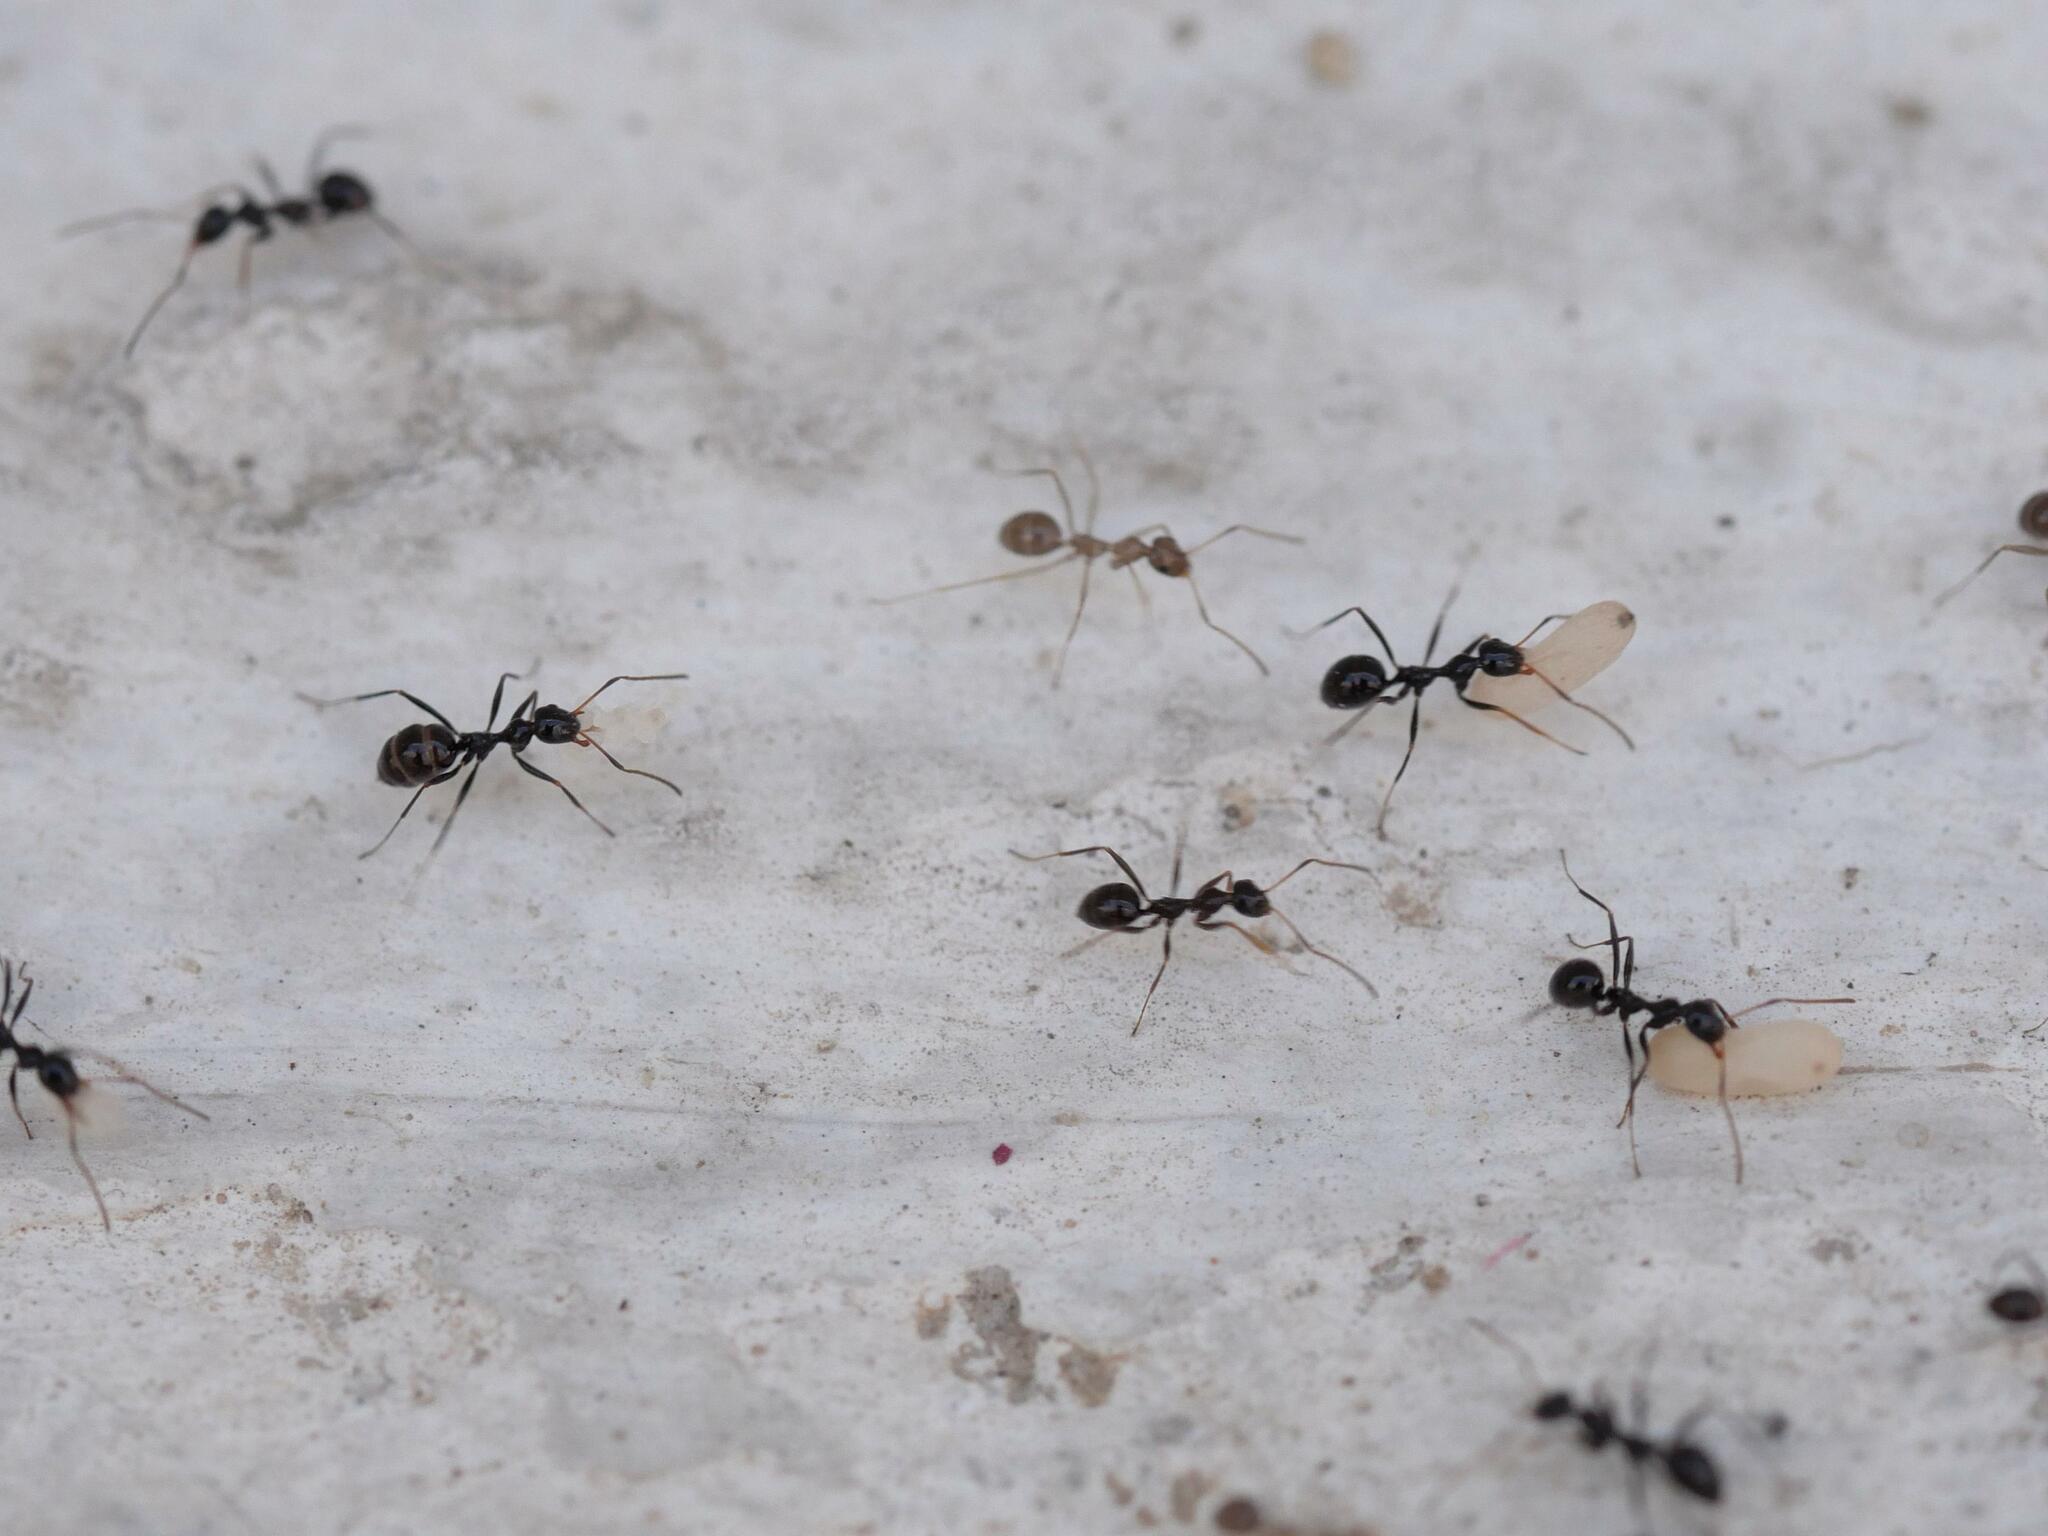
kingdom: Animalia
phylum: Arthropoda
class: Insecta
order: Hymenoptera
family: Formicidae
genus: Lepisiota
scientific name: Lepisiota nigra
